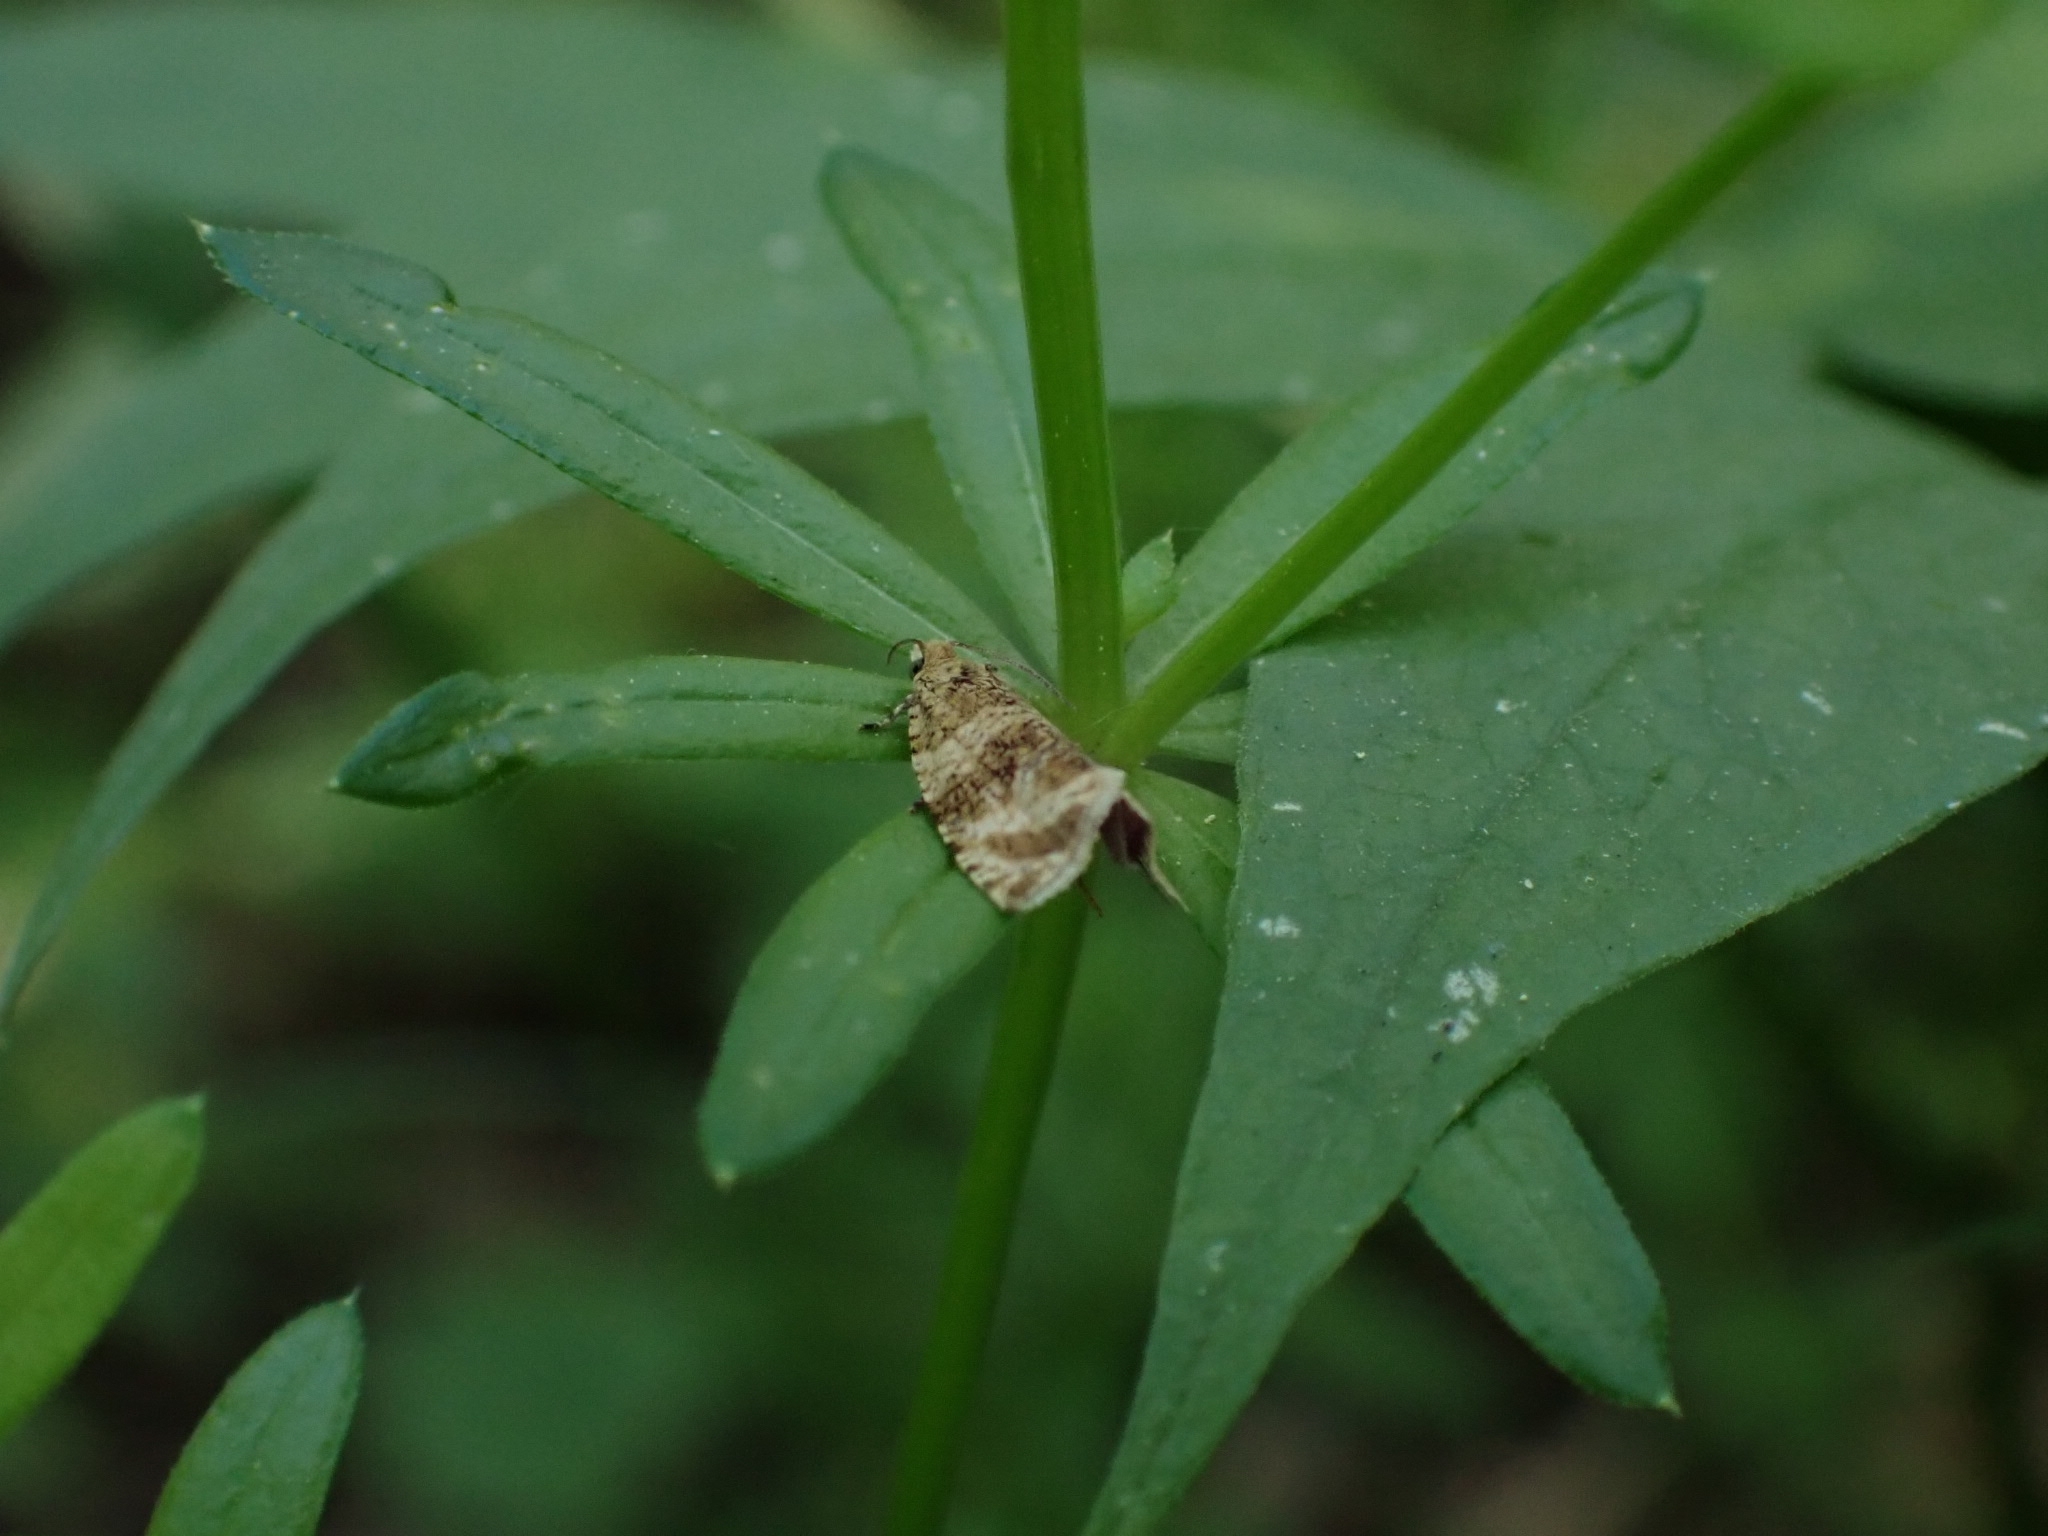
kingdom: Animalia
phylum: Arthropoda
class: Insecta
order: Lepidoptera
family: Tortricidae
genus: Orthotaenia
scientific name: Orthotaenia undulana
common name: Woodland marble
